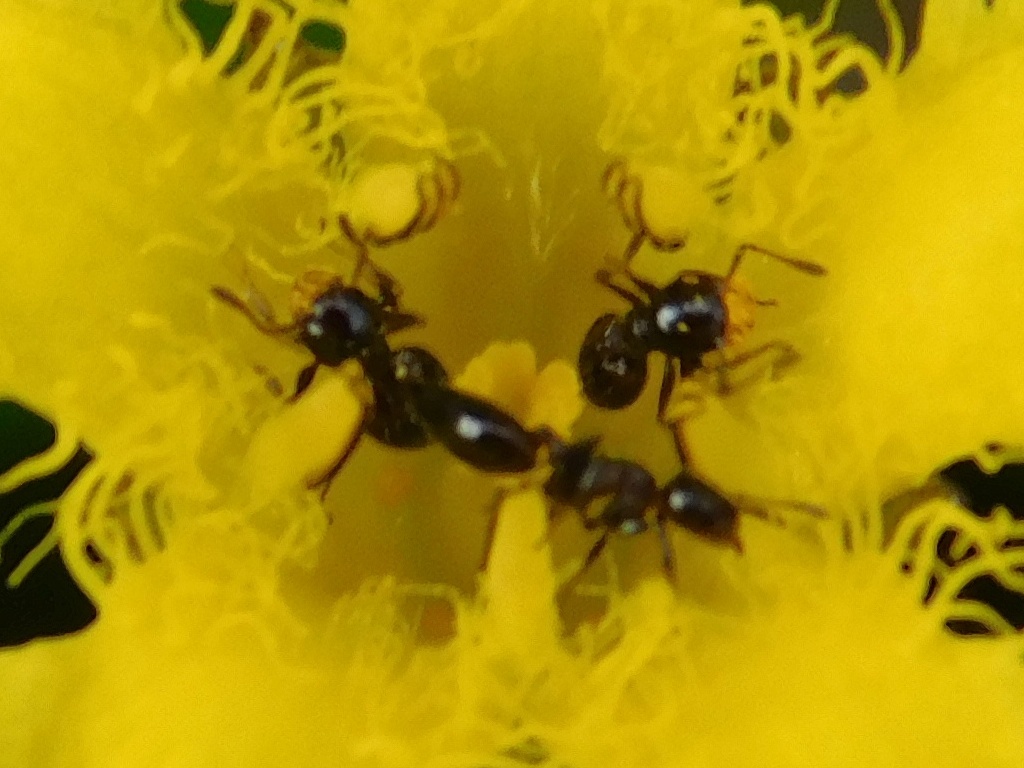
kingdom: Animalia
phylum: Arthropoda
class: Insecta
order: Hymenoptera
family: Formicidae
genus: Crematogaster
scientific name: Crematogaster peringueyi
